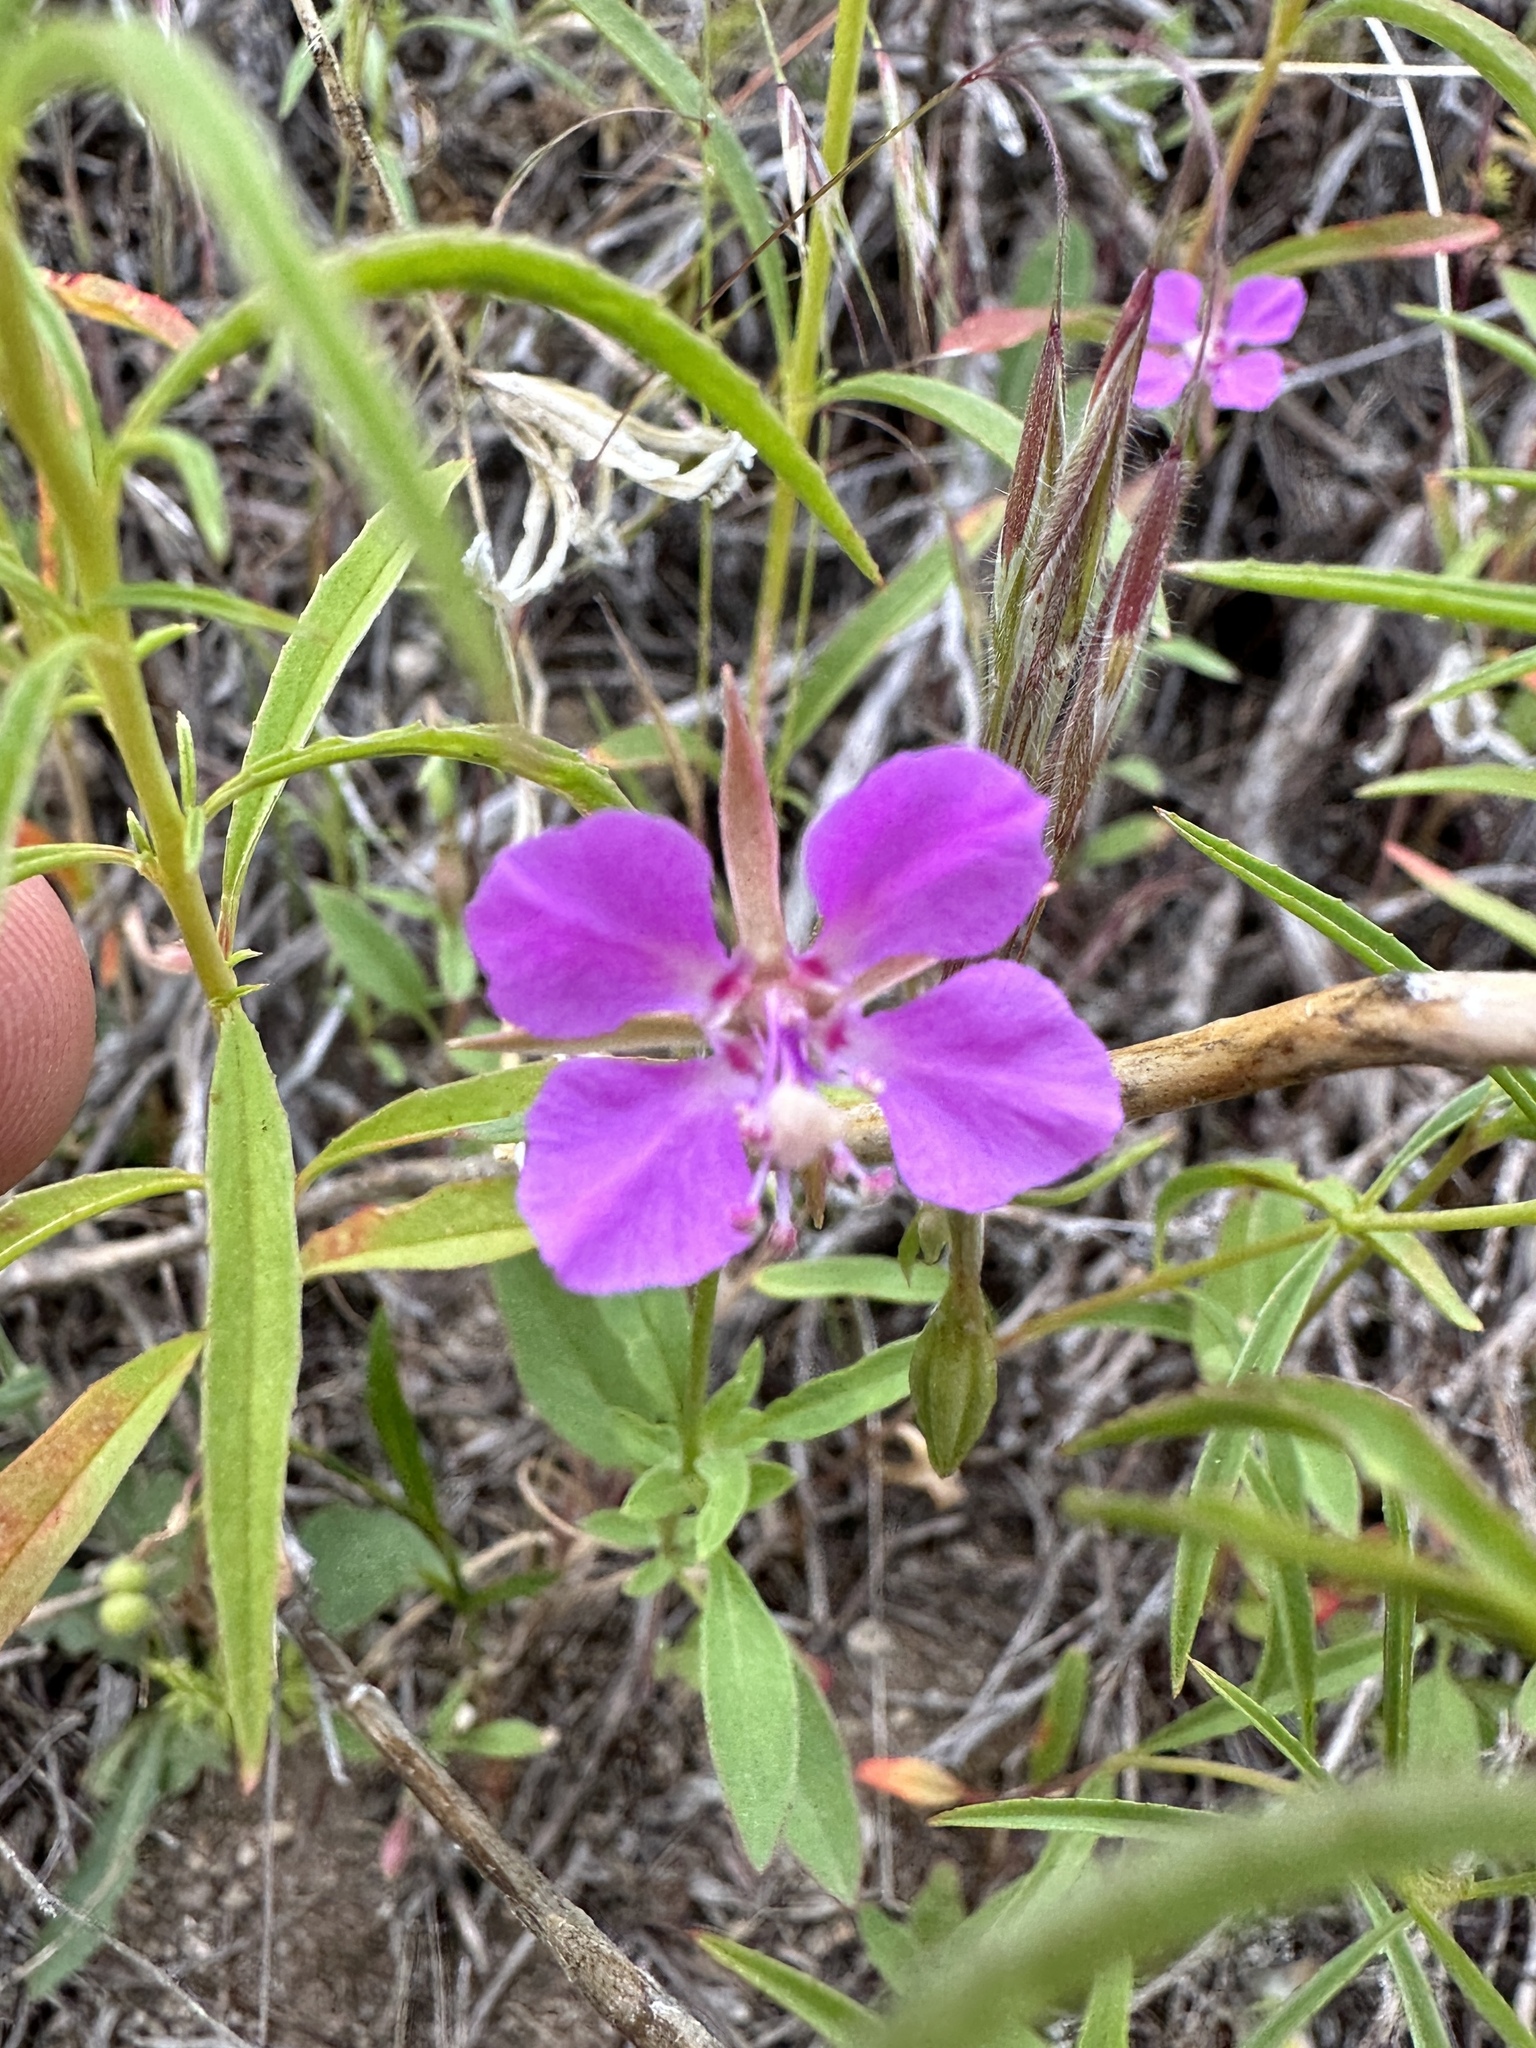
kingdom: Plantae
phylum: Tracheophyta
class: Magnoliopsida
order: Myrtales
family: Onagraceae
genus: Clarkia
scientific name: Clarkia rhomboidea
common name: Broadleaf clarkia
